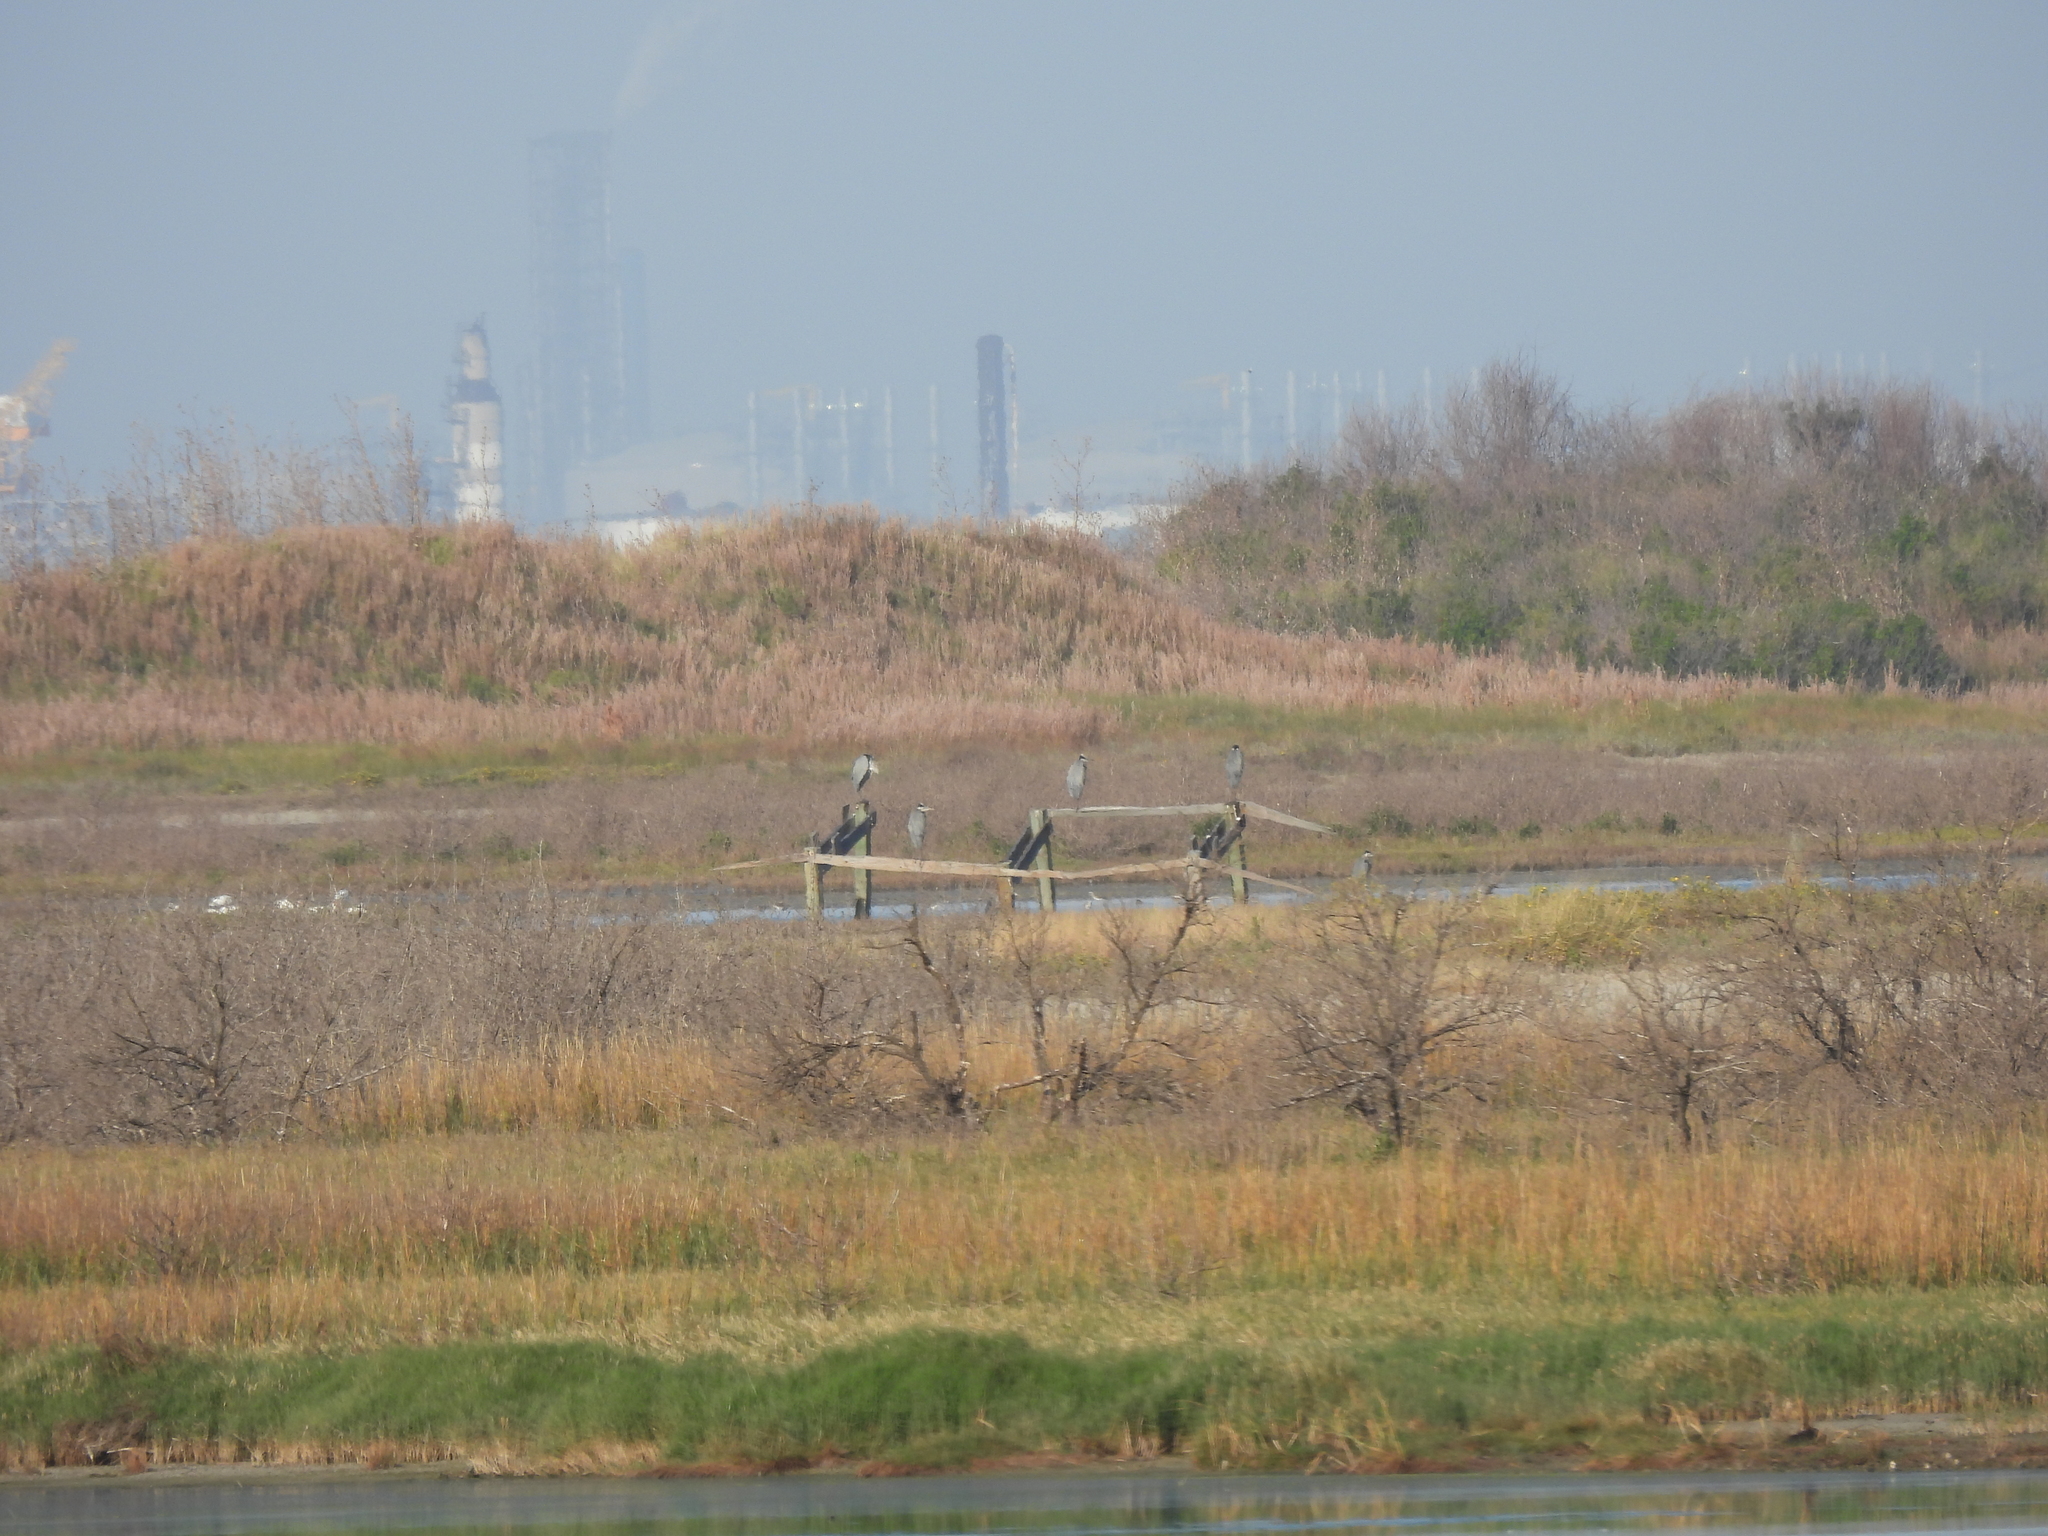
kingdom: Animalia
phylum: Chordata
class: Aves
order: Pelecaniformes
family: Ardeidae
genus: Ardea
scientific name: Ardea herodias
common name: Great blue heron
